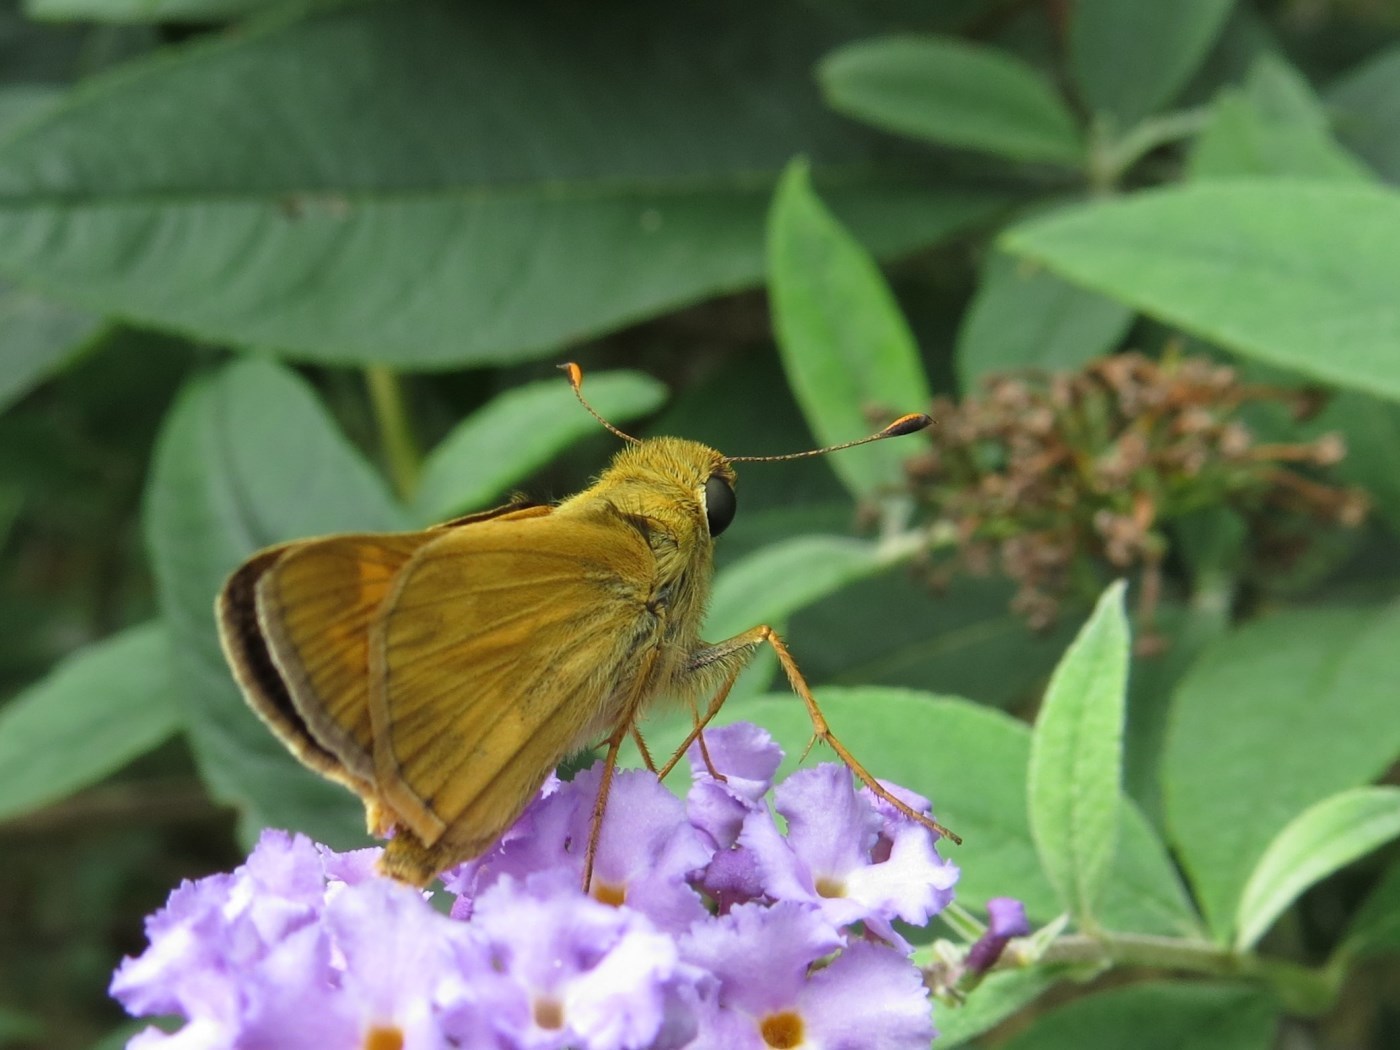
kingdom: Animalia
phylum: Arthropoda
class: Insecta
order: Lepidoptera
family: Hesperiidae
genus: Atalopedes
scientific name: Atalopedes
